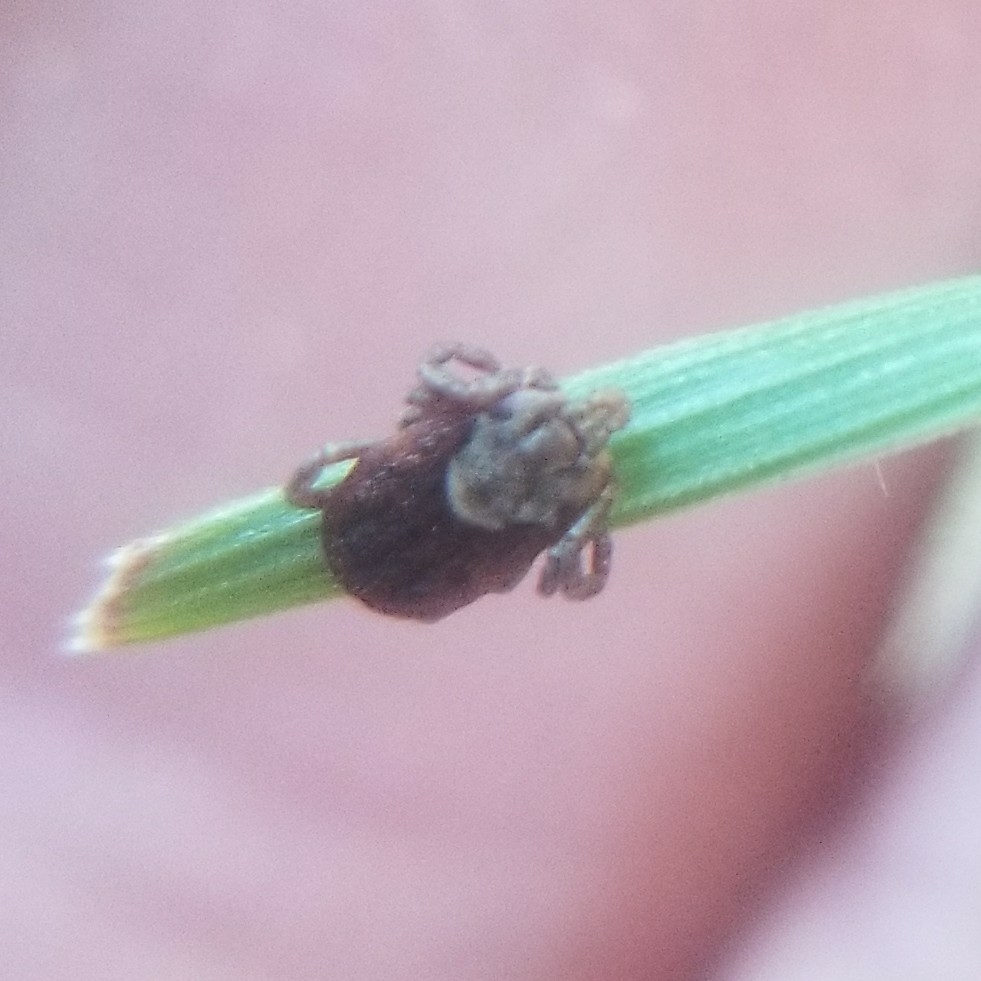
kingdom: Animalia
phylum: Arthropoda
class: Arachnida
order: Ixodida
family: Ixodidae
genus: Dermacentor
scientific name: Dermacentor occidentalis
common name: Net tick
